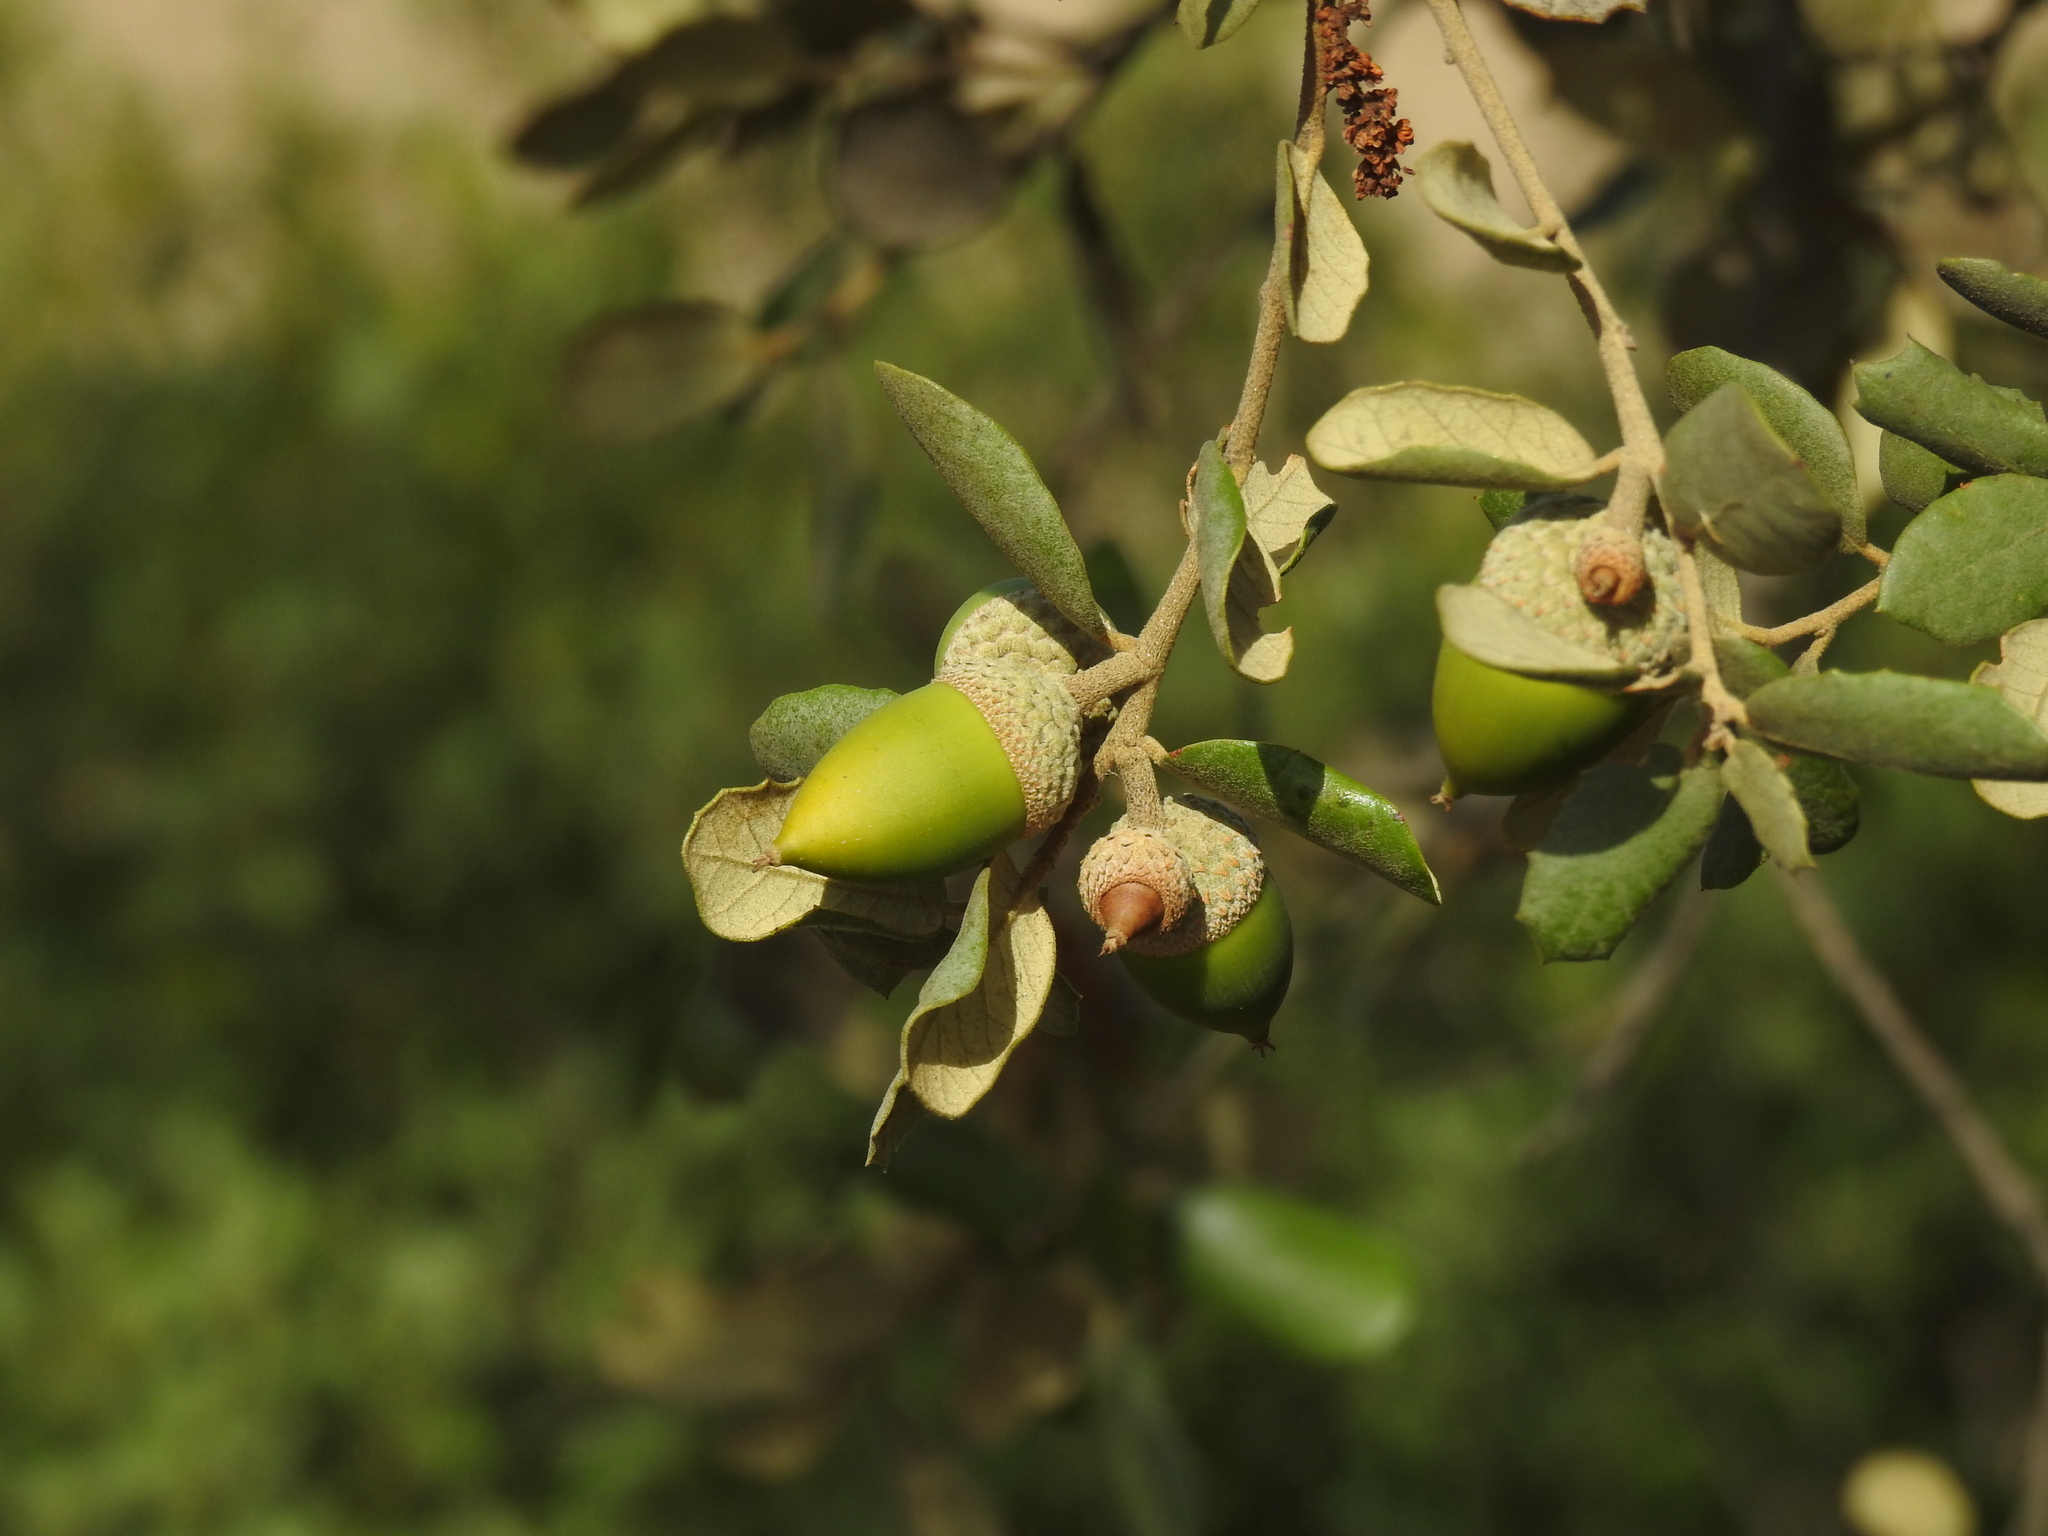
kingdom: Plantae
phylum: Tracheophyta
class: Magnoliopsida
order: Fagales
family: Fagaceae
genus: Quercus
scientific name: Quercus rotundifolia
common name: Holm oak
